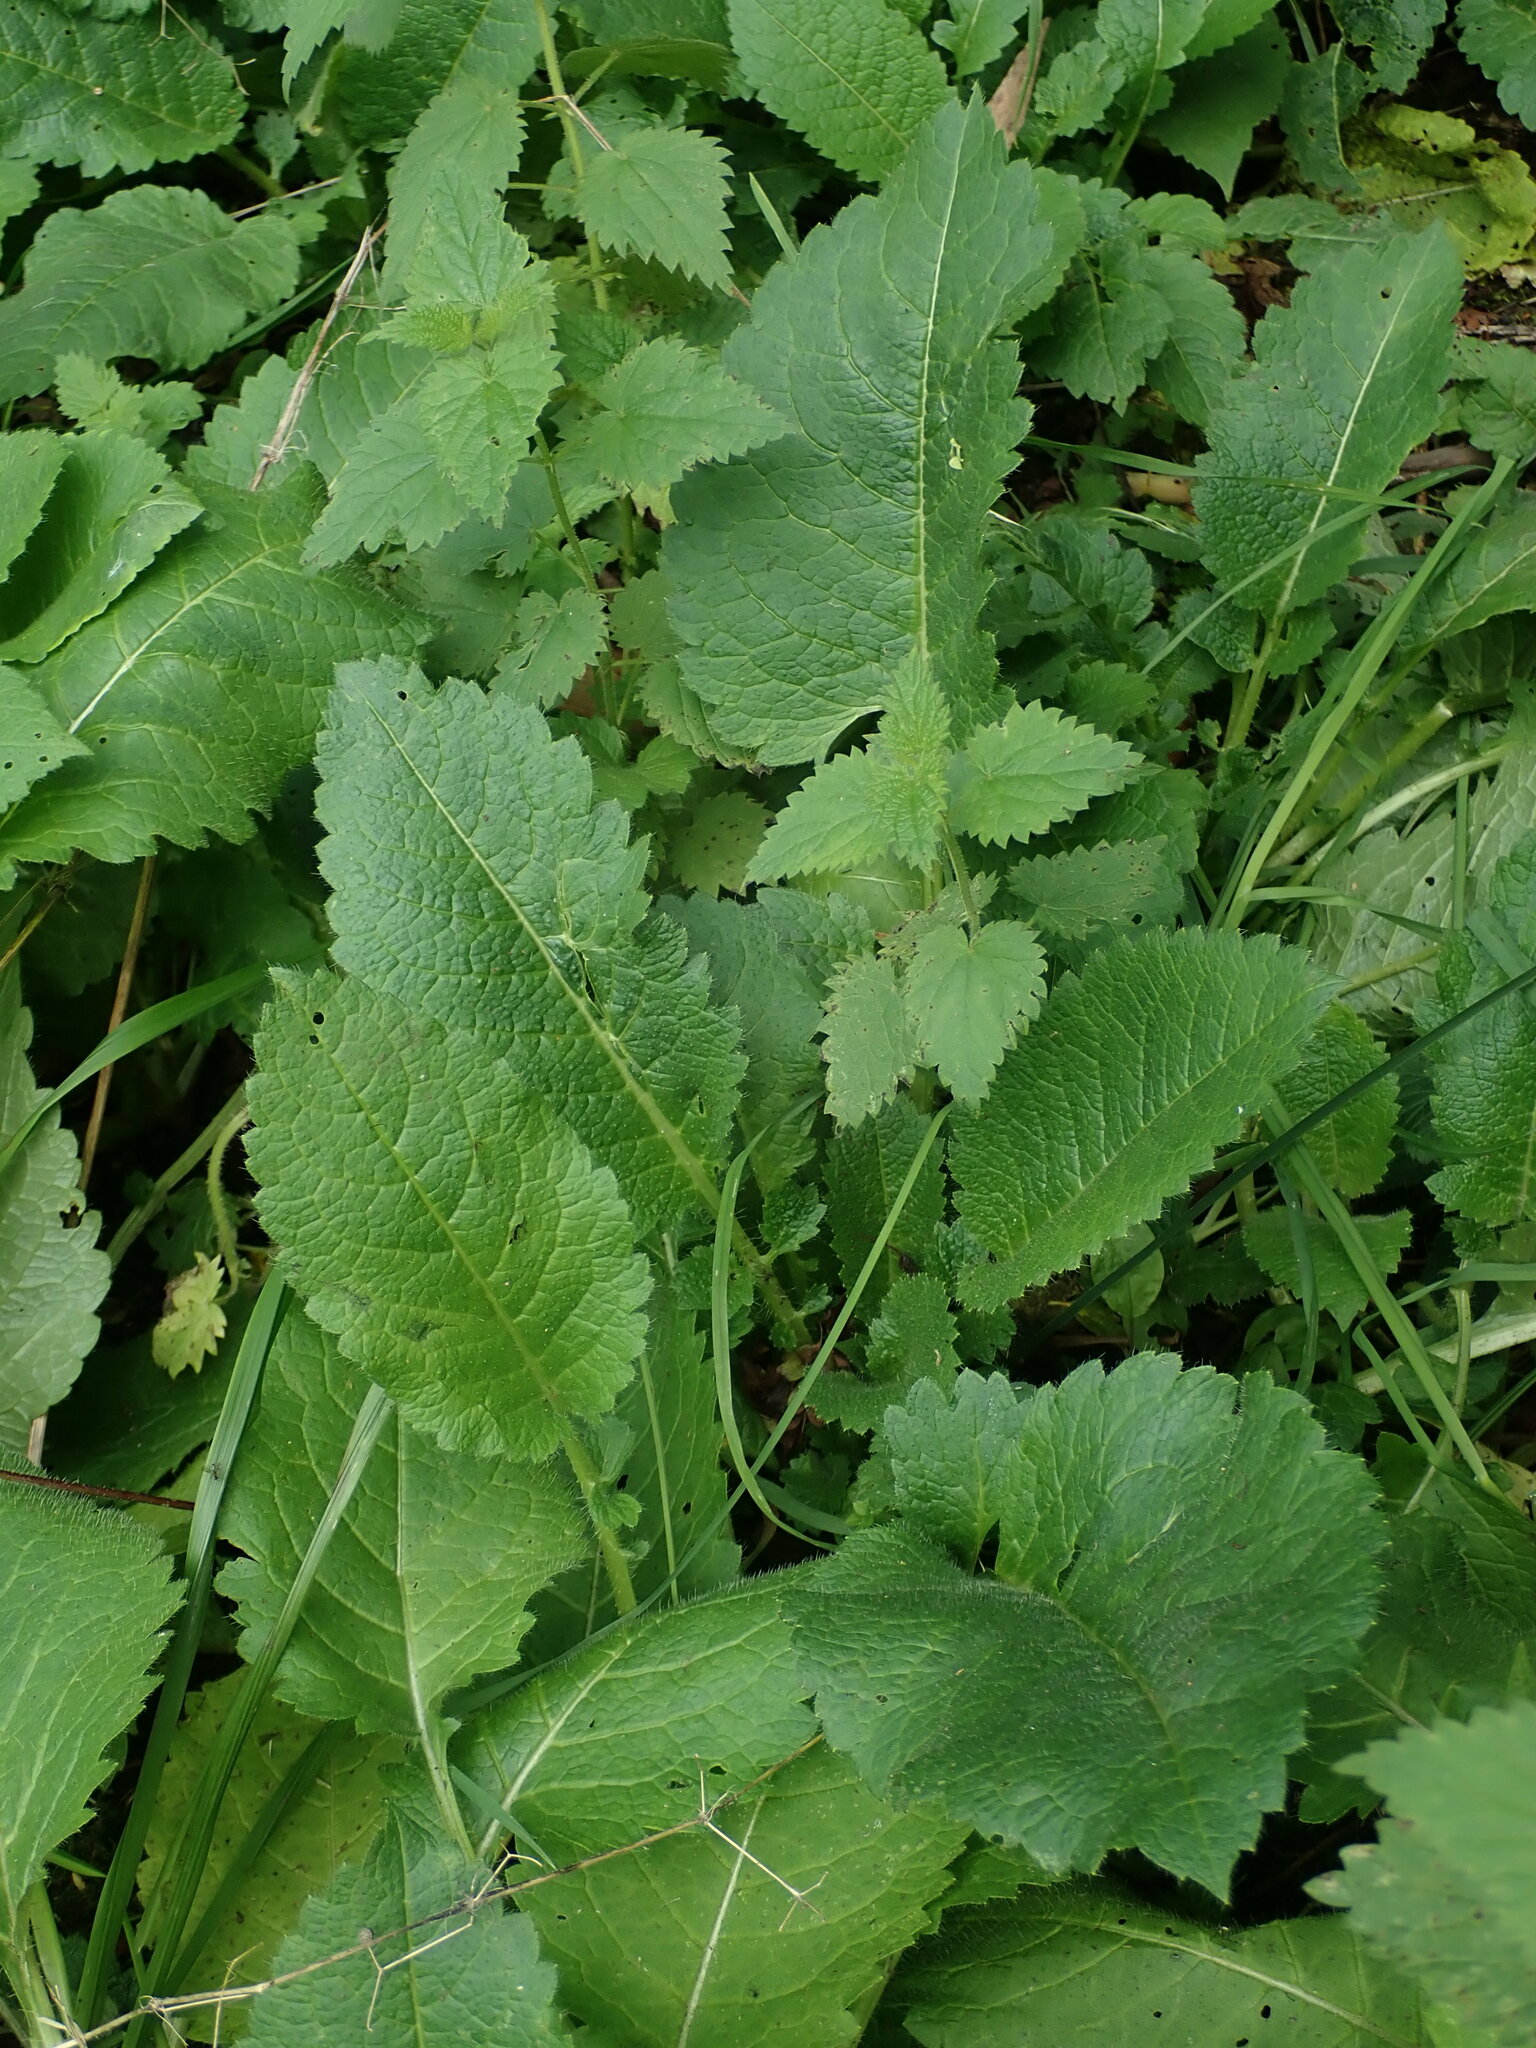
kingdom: Plantae
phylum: Tracheophyta
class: Magnoliopsida
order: Dipsacales
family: Caprifoliaceae
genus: Dipsacus
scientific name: Dipsacus pilosus
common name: Small teasel
